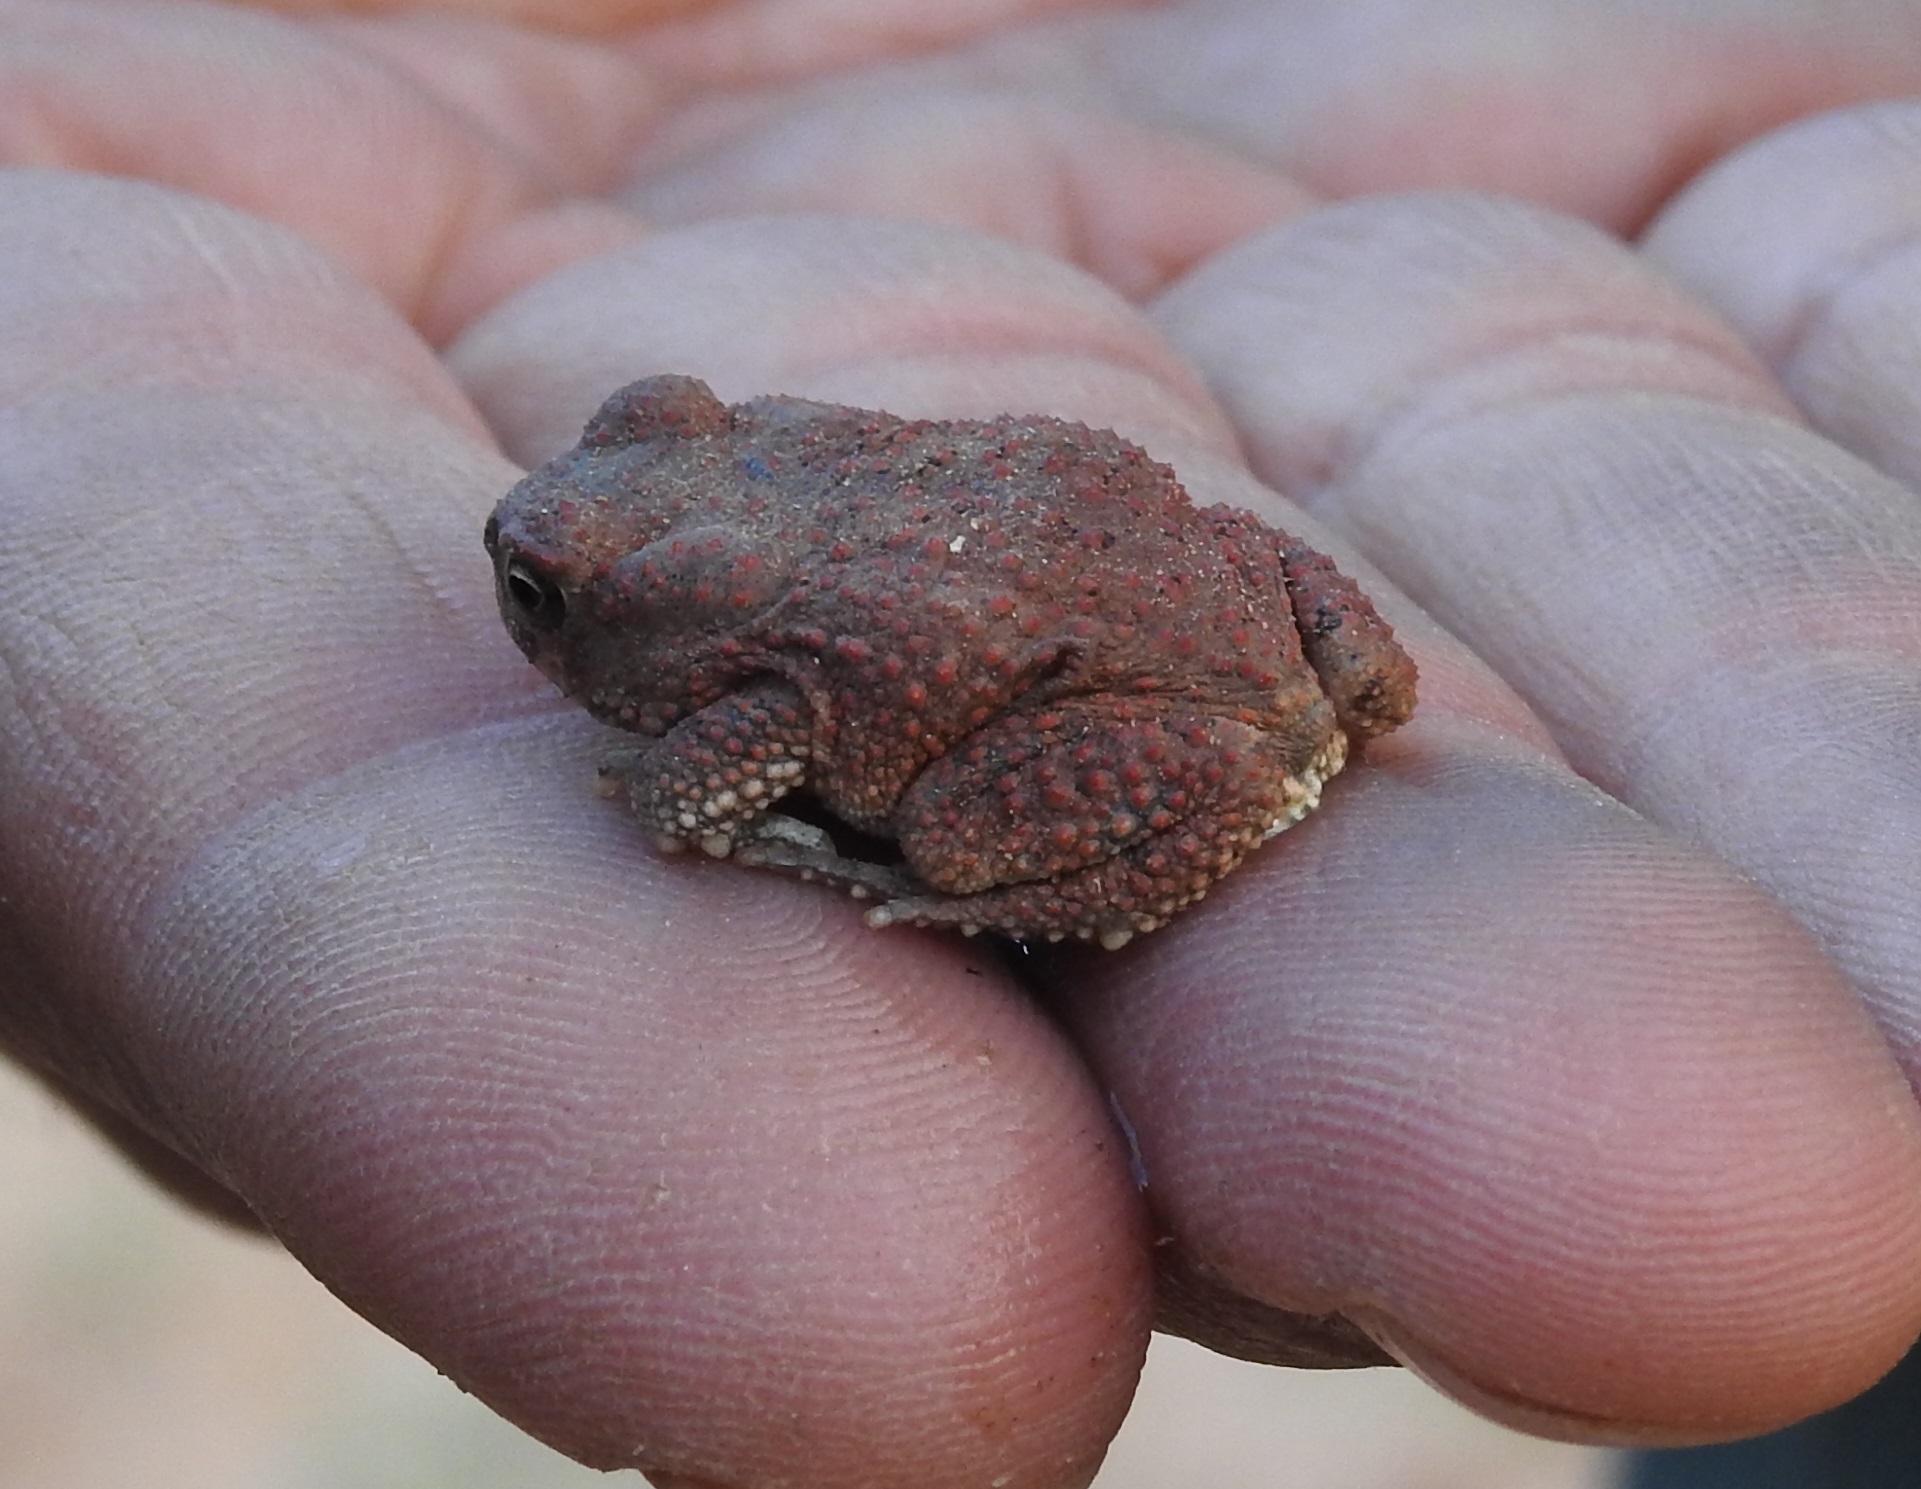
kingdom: Animalia
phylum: Chordata
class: Amphibia
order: Anura
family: Bufonidae
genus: Sclerophrys
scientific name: Sclerophrys mauritanica
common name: Berber toad
